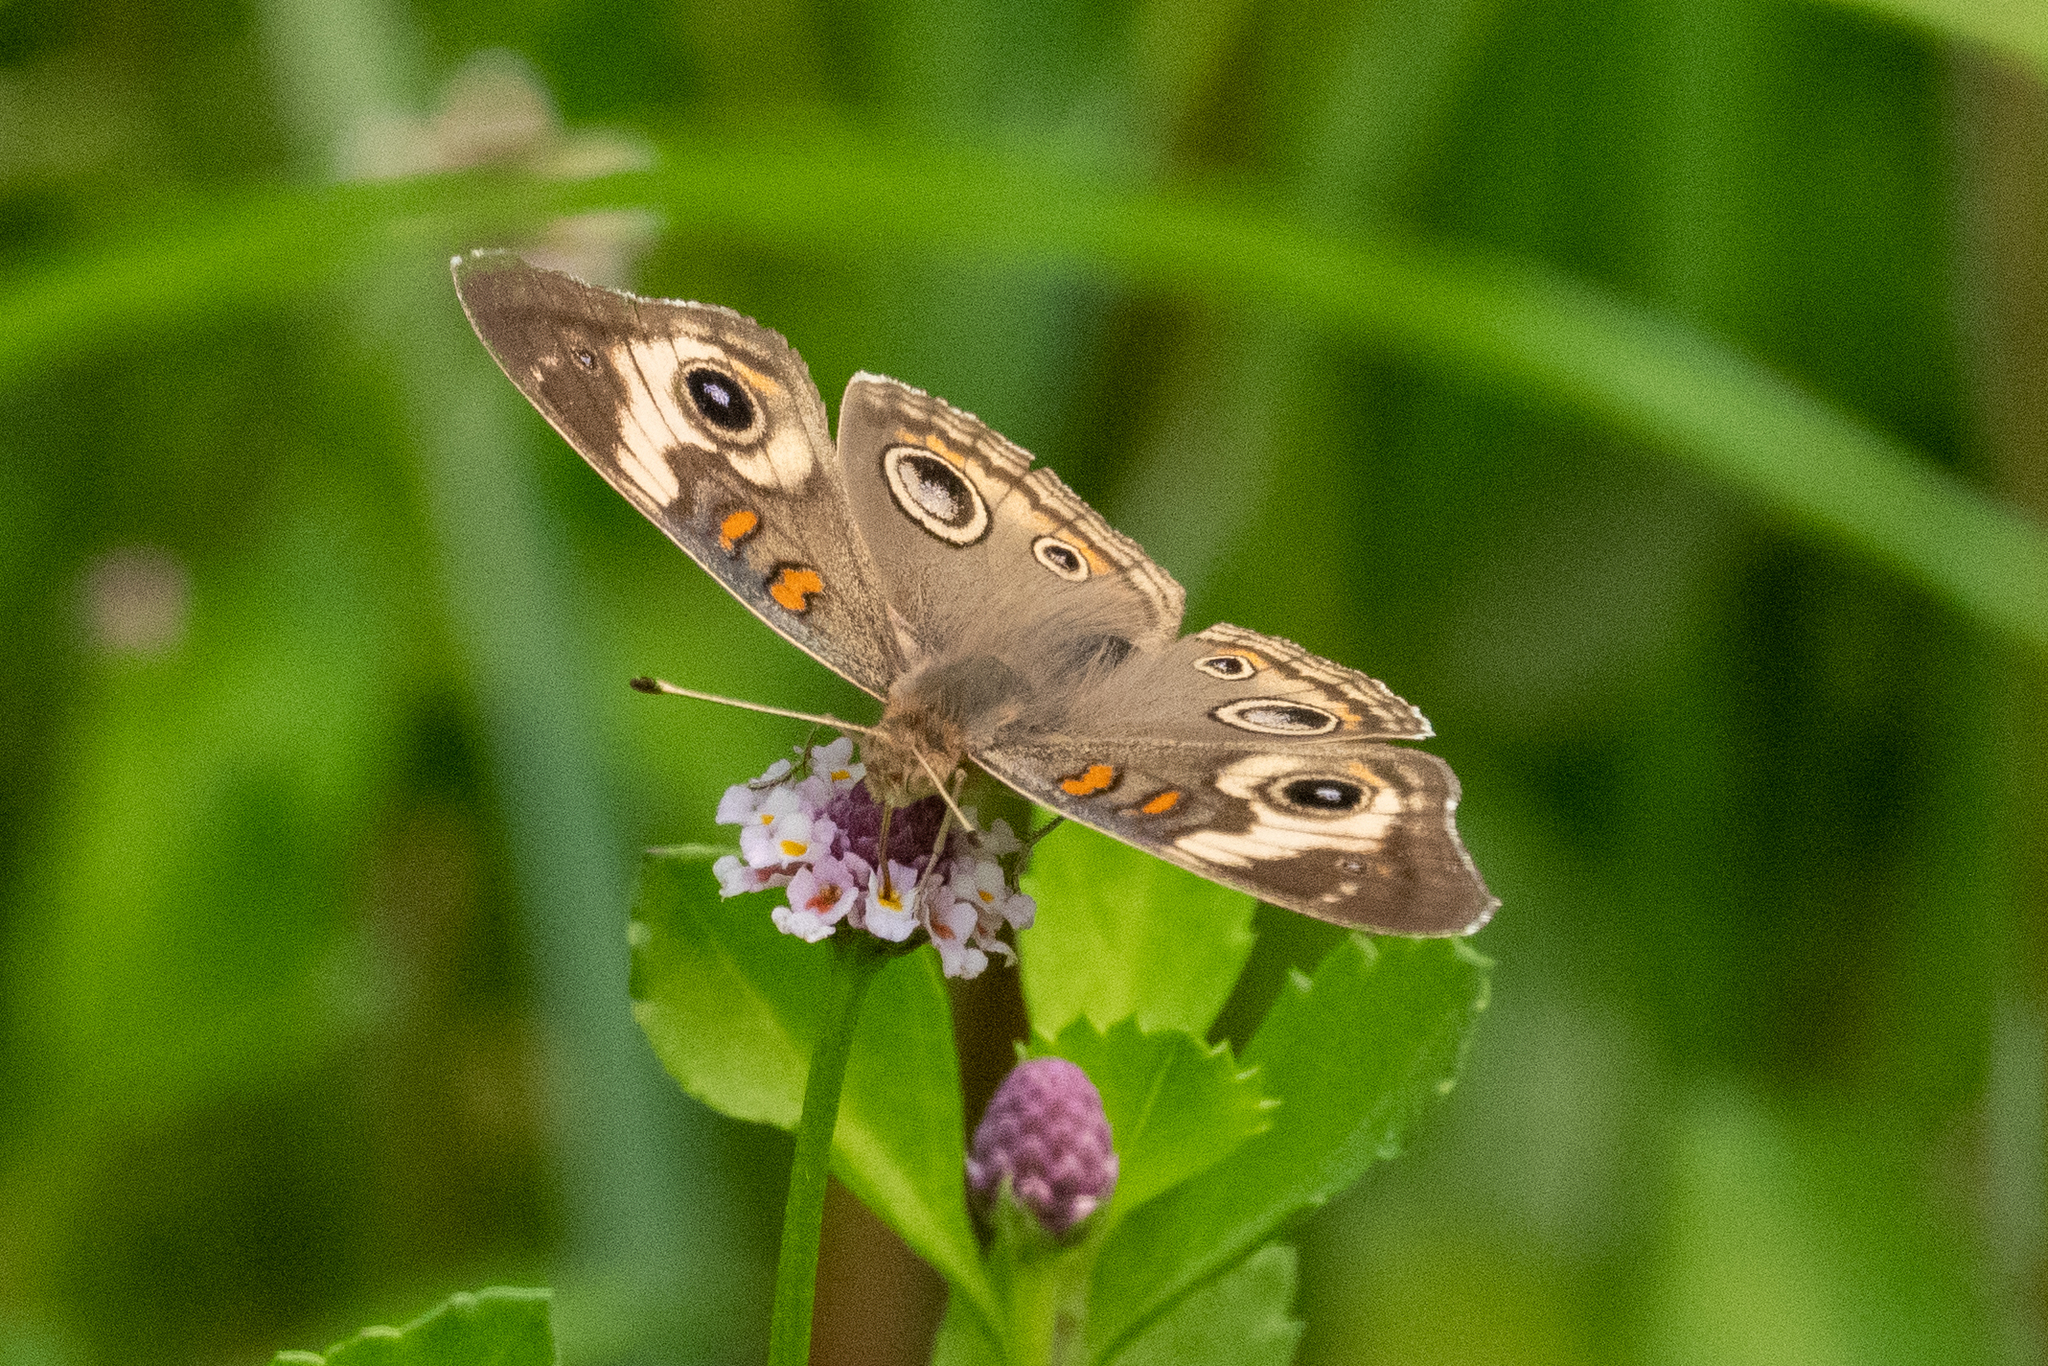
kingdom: Animalia
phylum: Arthropoda
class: Insecta
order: Lepidoptera
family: Nymphalidae
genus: Junonia
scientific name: Junonia grisea
